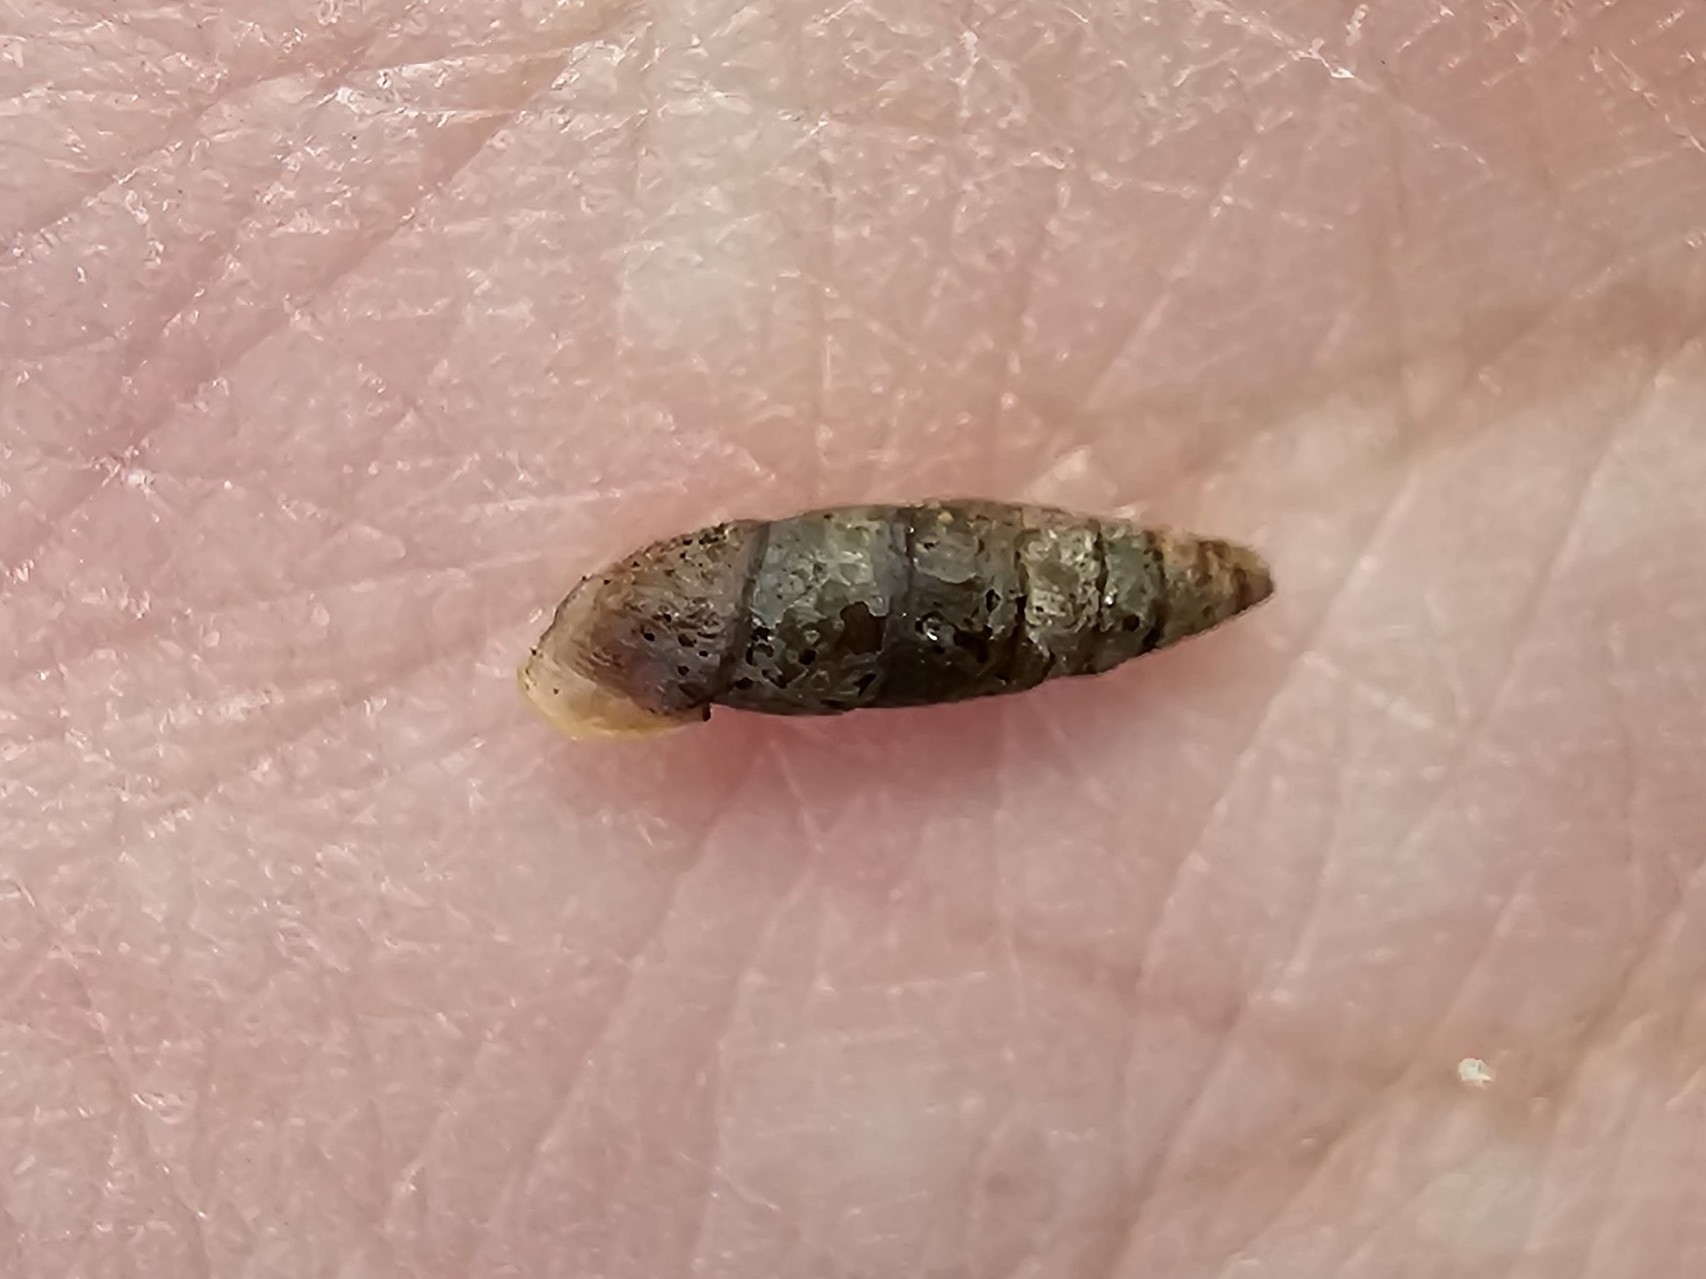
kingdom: Animalia
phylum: Mollusca
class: Gastropoda
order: Stylommatophora
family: Clausiliidae
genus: Clausilia
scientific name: Clausilia bidentata
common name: Two-toothed door snail
